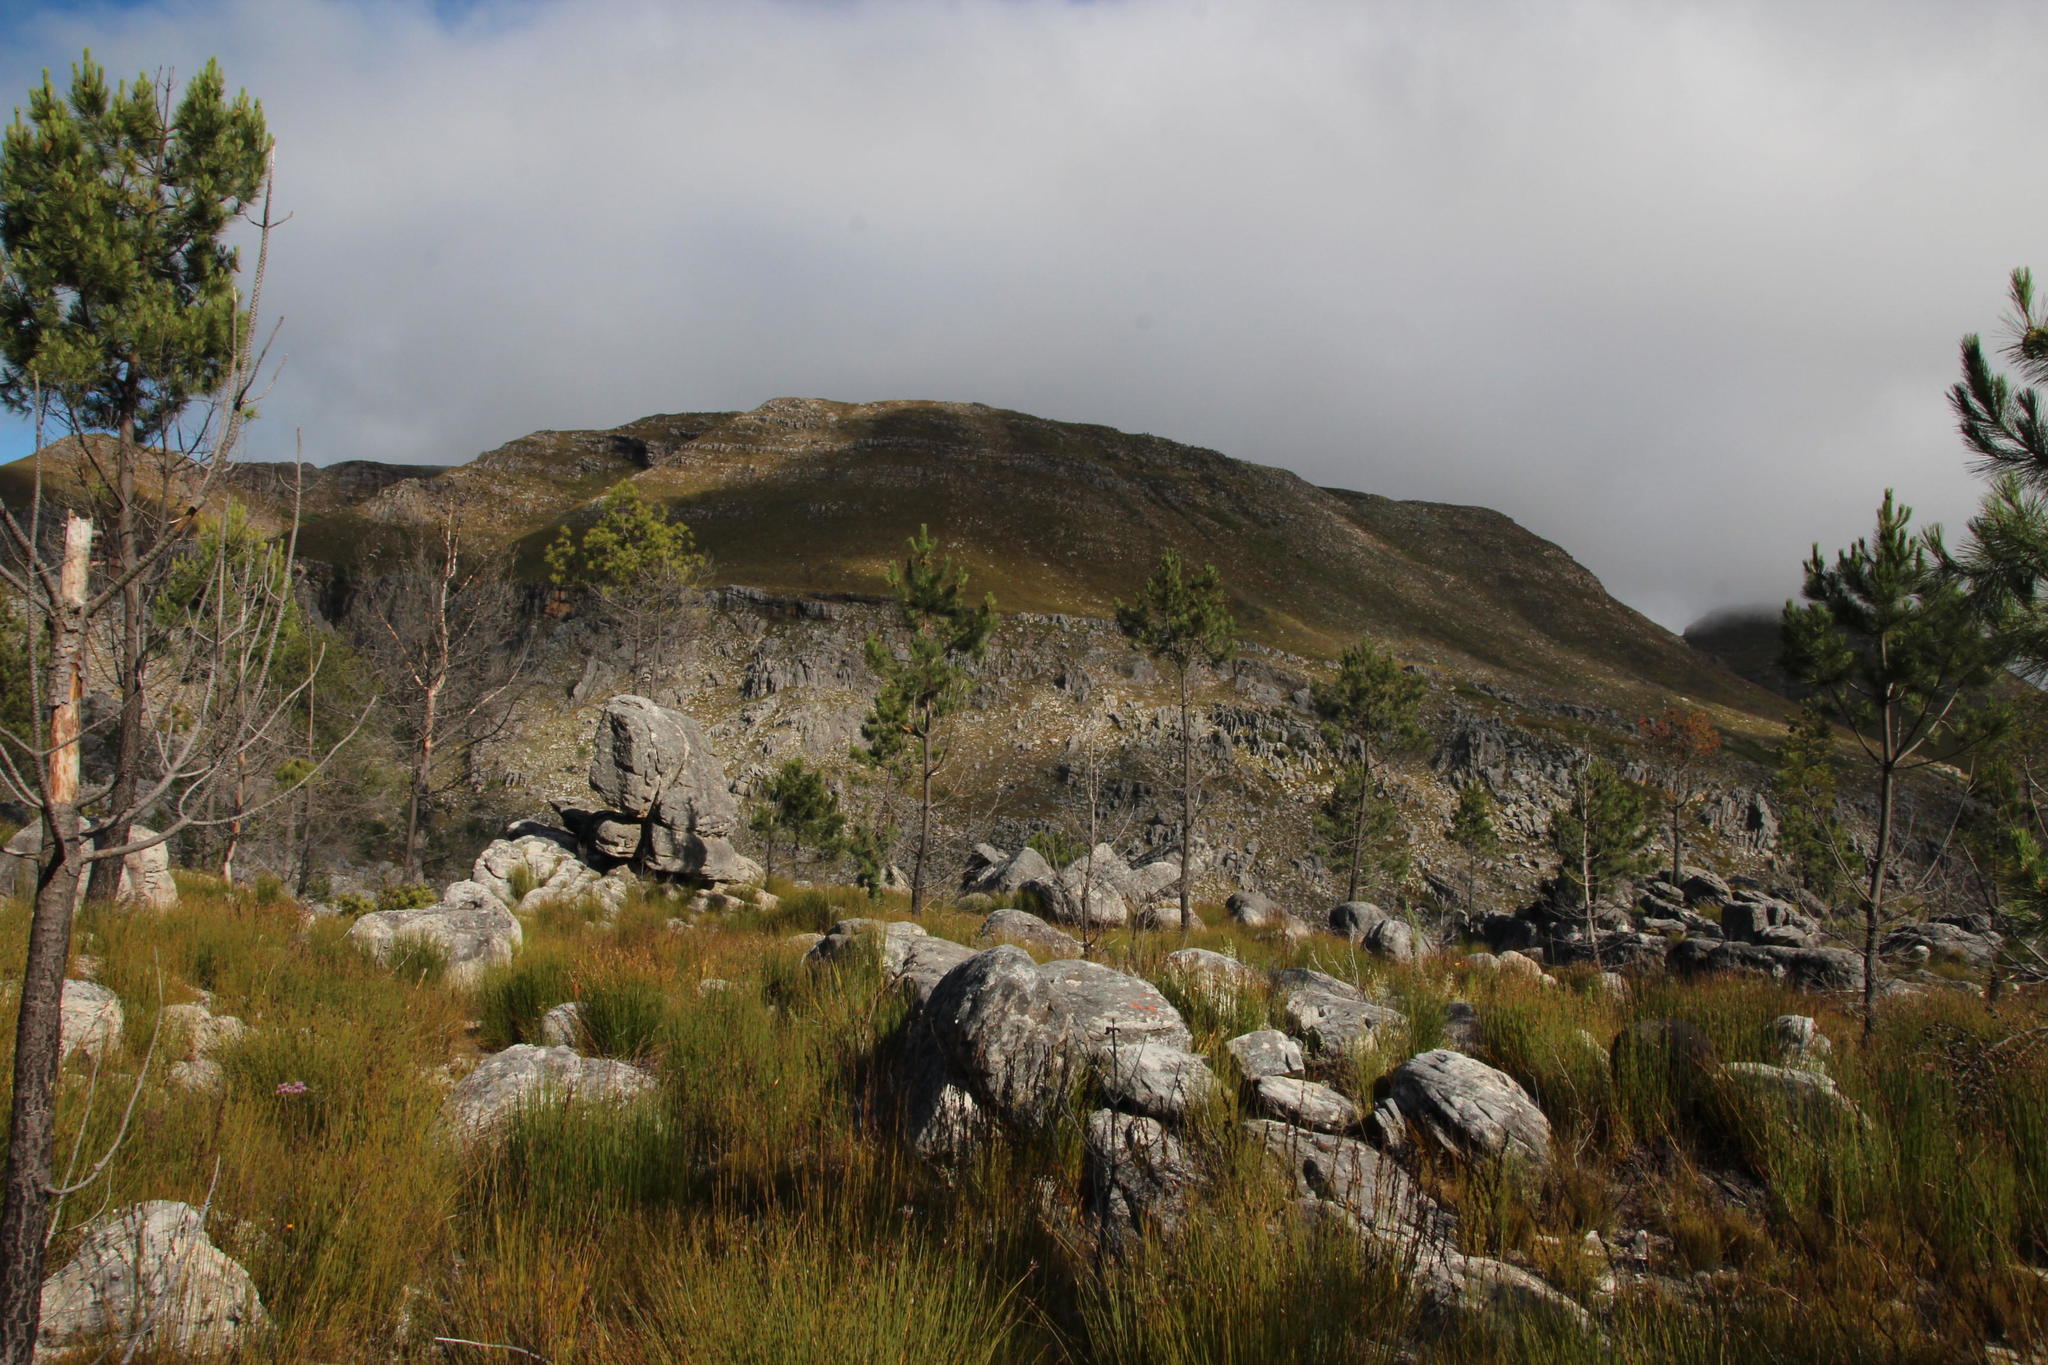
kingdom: Plantae
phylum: Tracheophyta
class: Pinopsida
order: Pinales
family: Pinaceae
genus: Pinus
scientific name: Pinus pinaster
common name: Maritime pine
